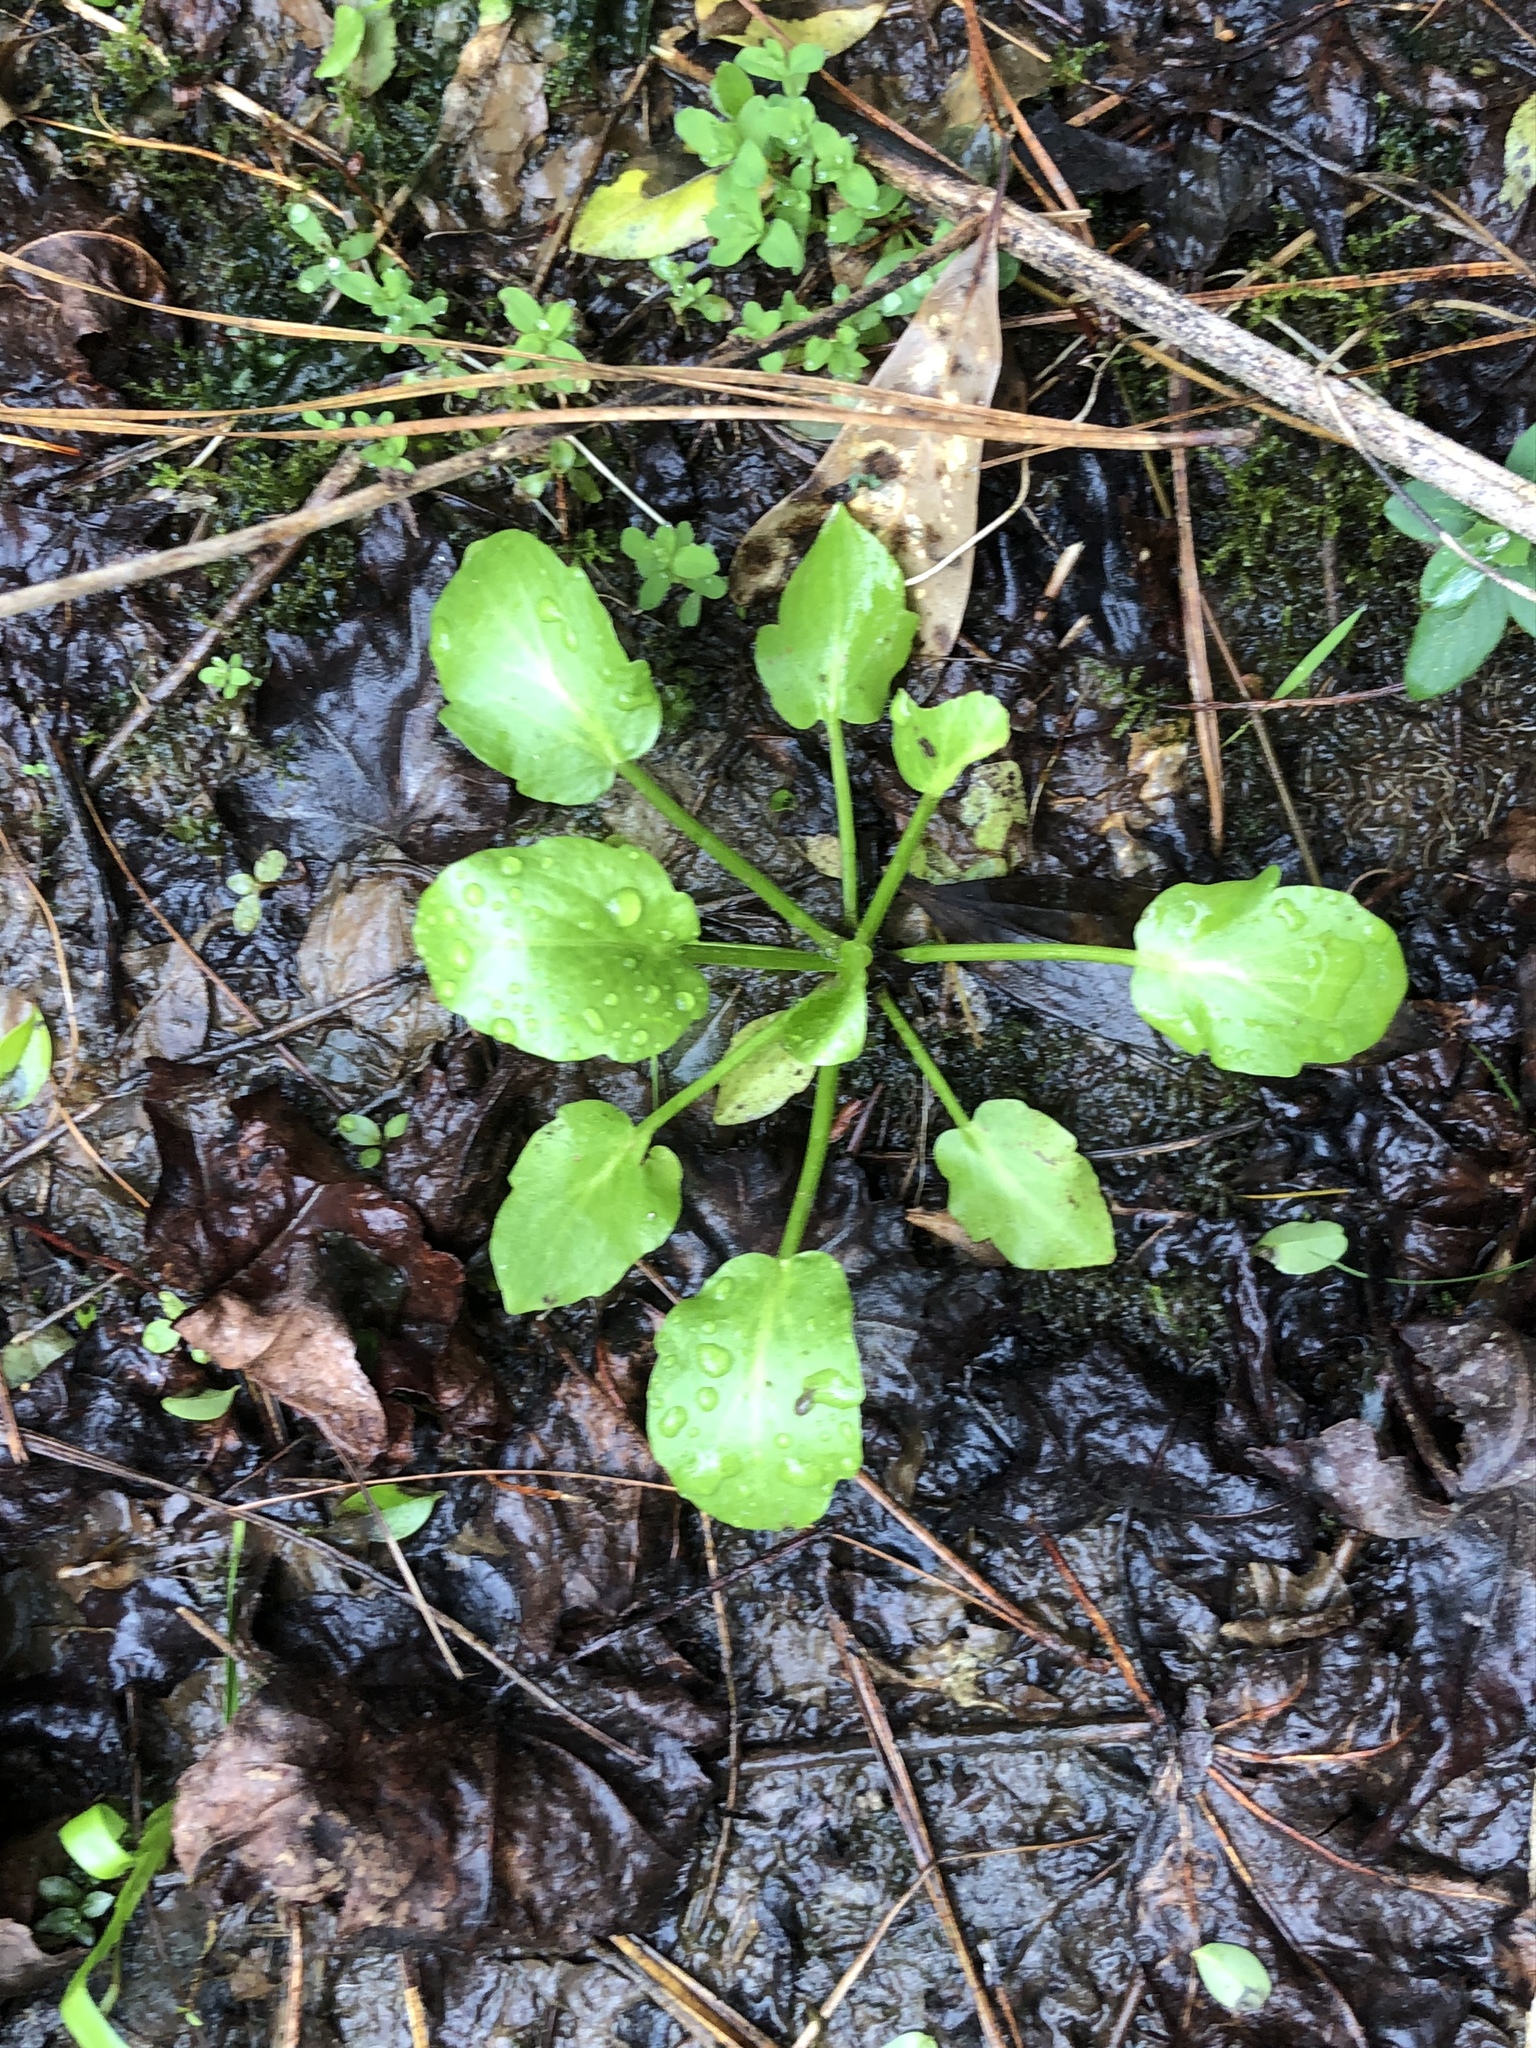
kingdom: Plantae
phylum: Tracheophyta
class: Magnoliopsida
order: Apiales
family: Apiaceae
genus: Eryngium
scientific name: Eryngium prostratum
